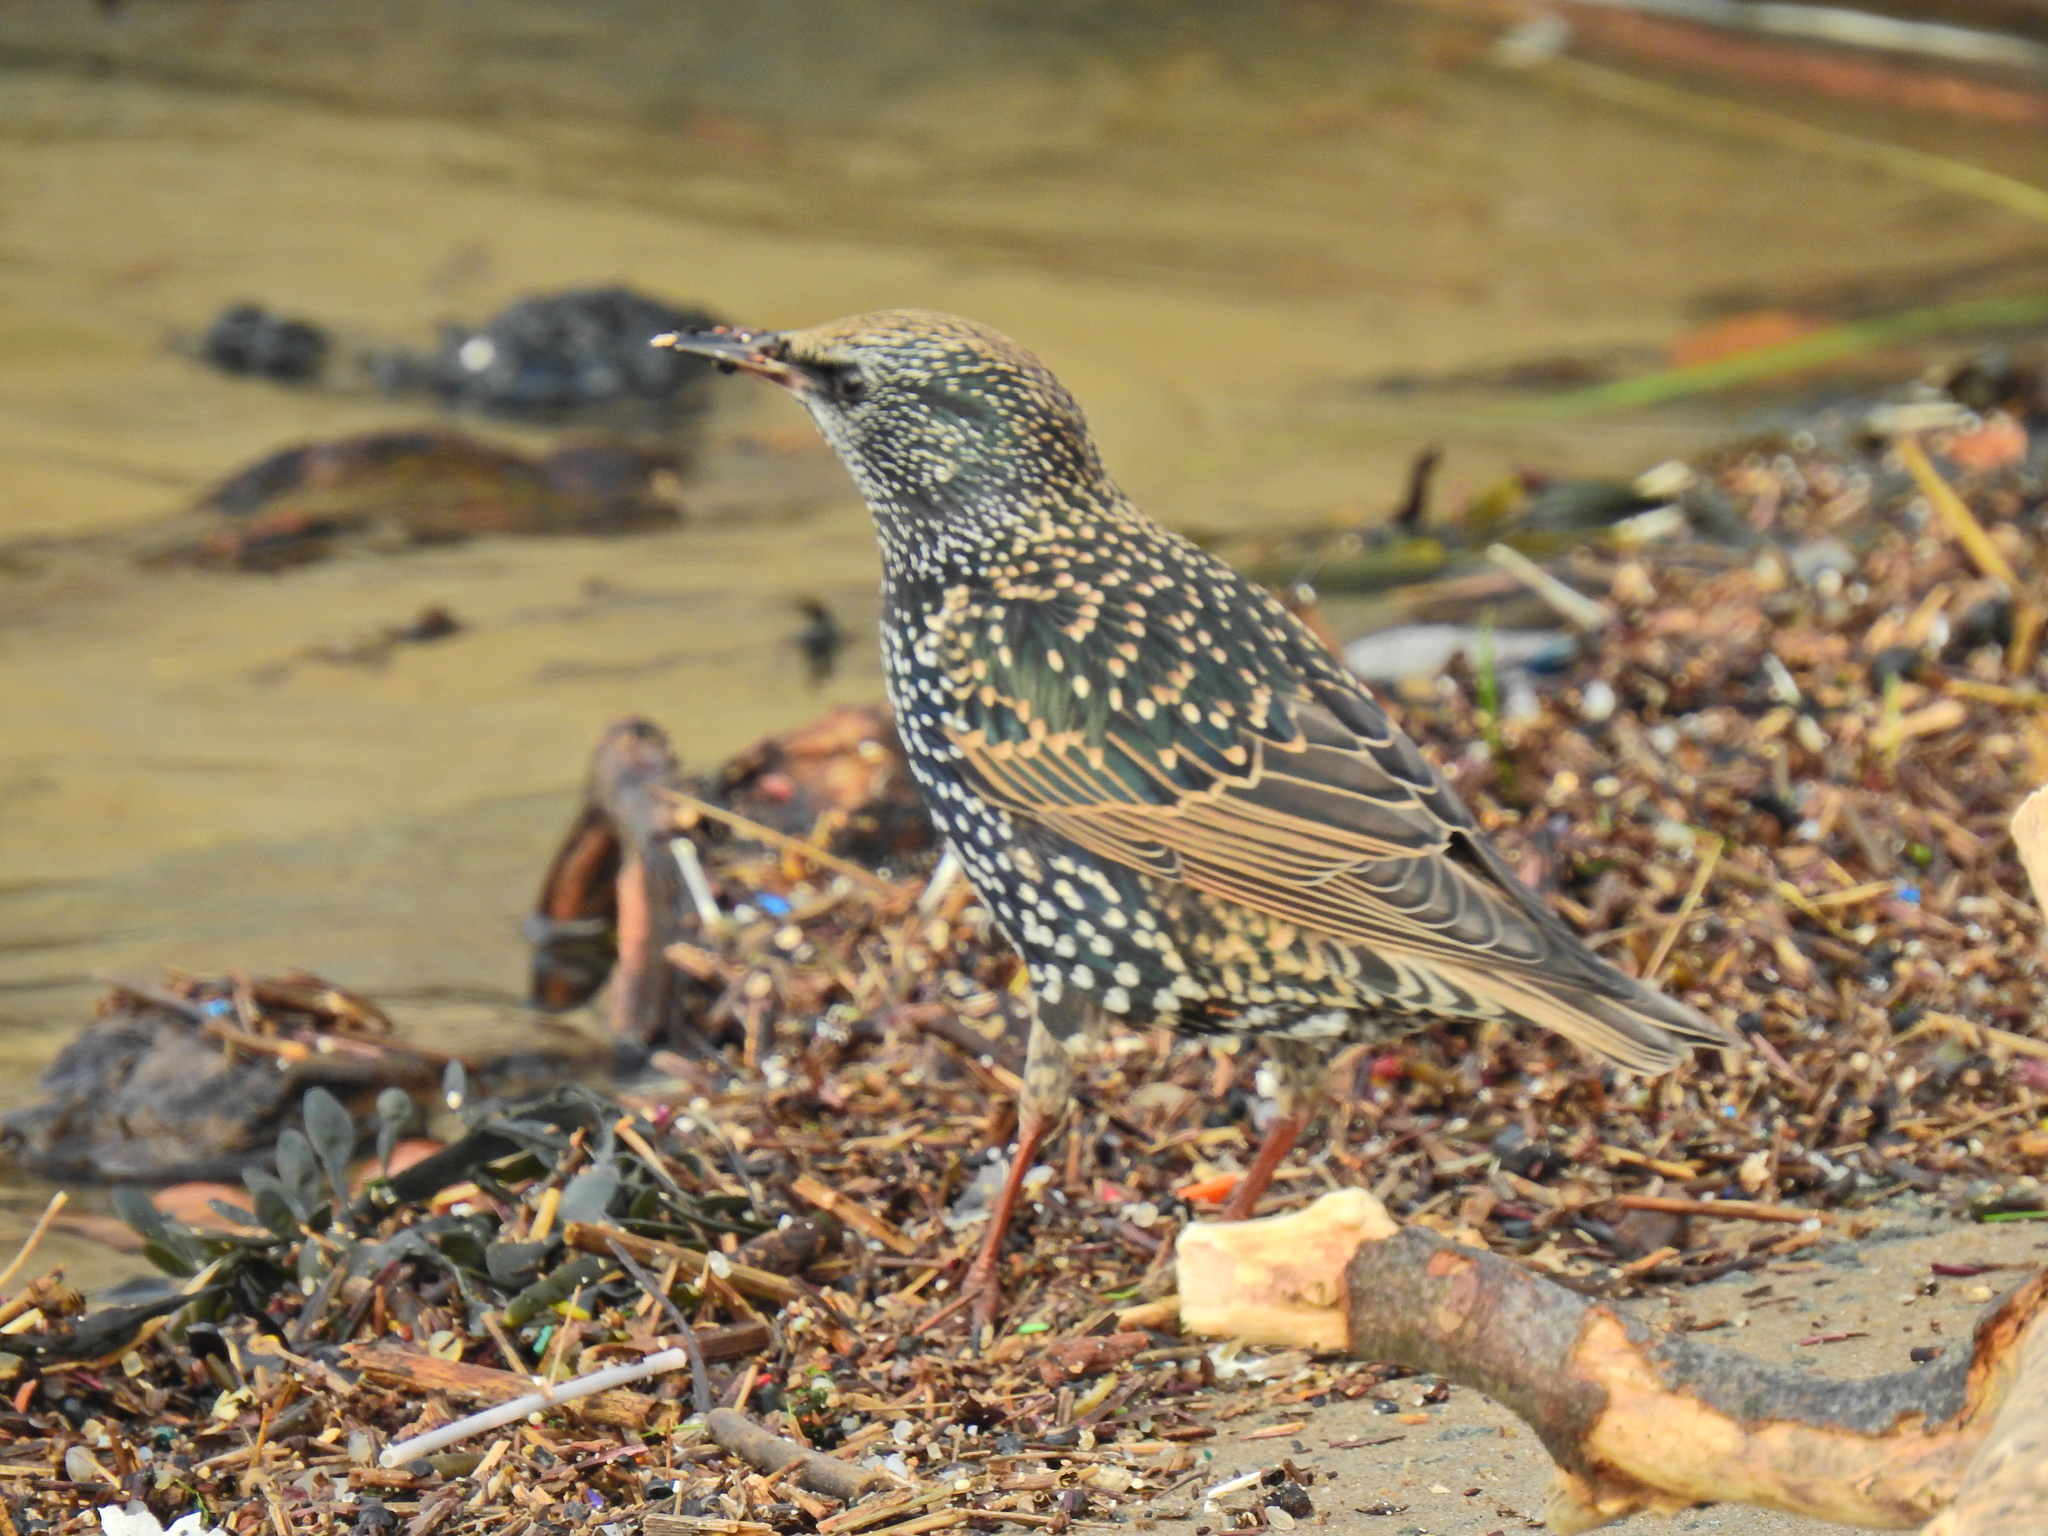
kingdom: Animalia
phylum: Chordata
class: Aves
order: Passeriformes
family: Sturnidae
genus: Sturnus
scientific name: Sturnus vulgaris
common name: Common starling
